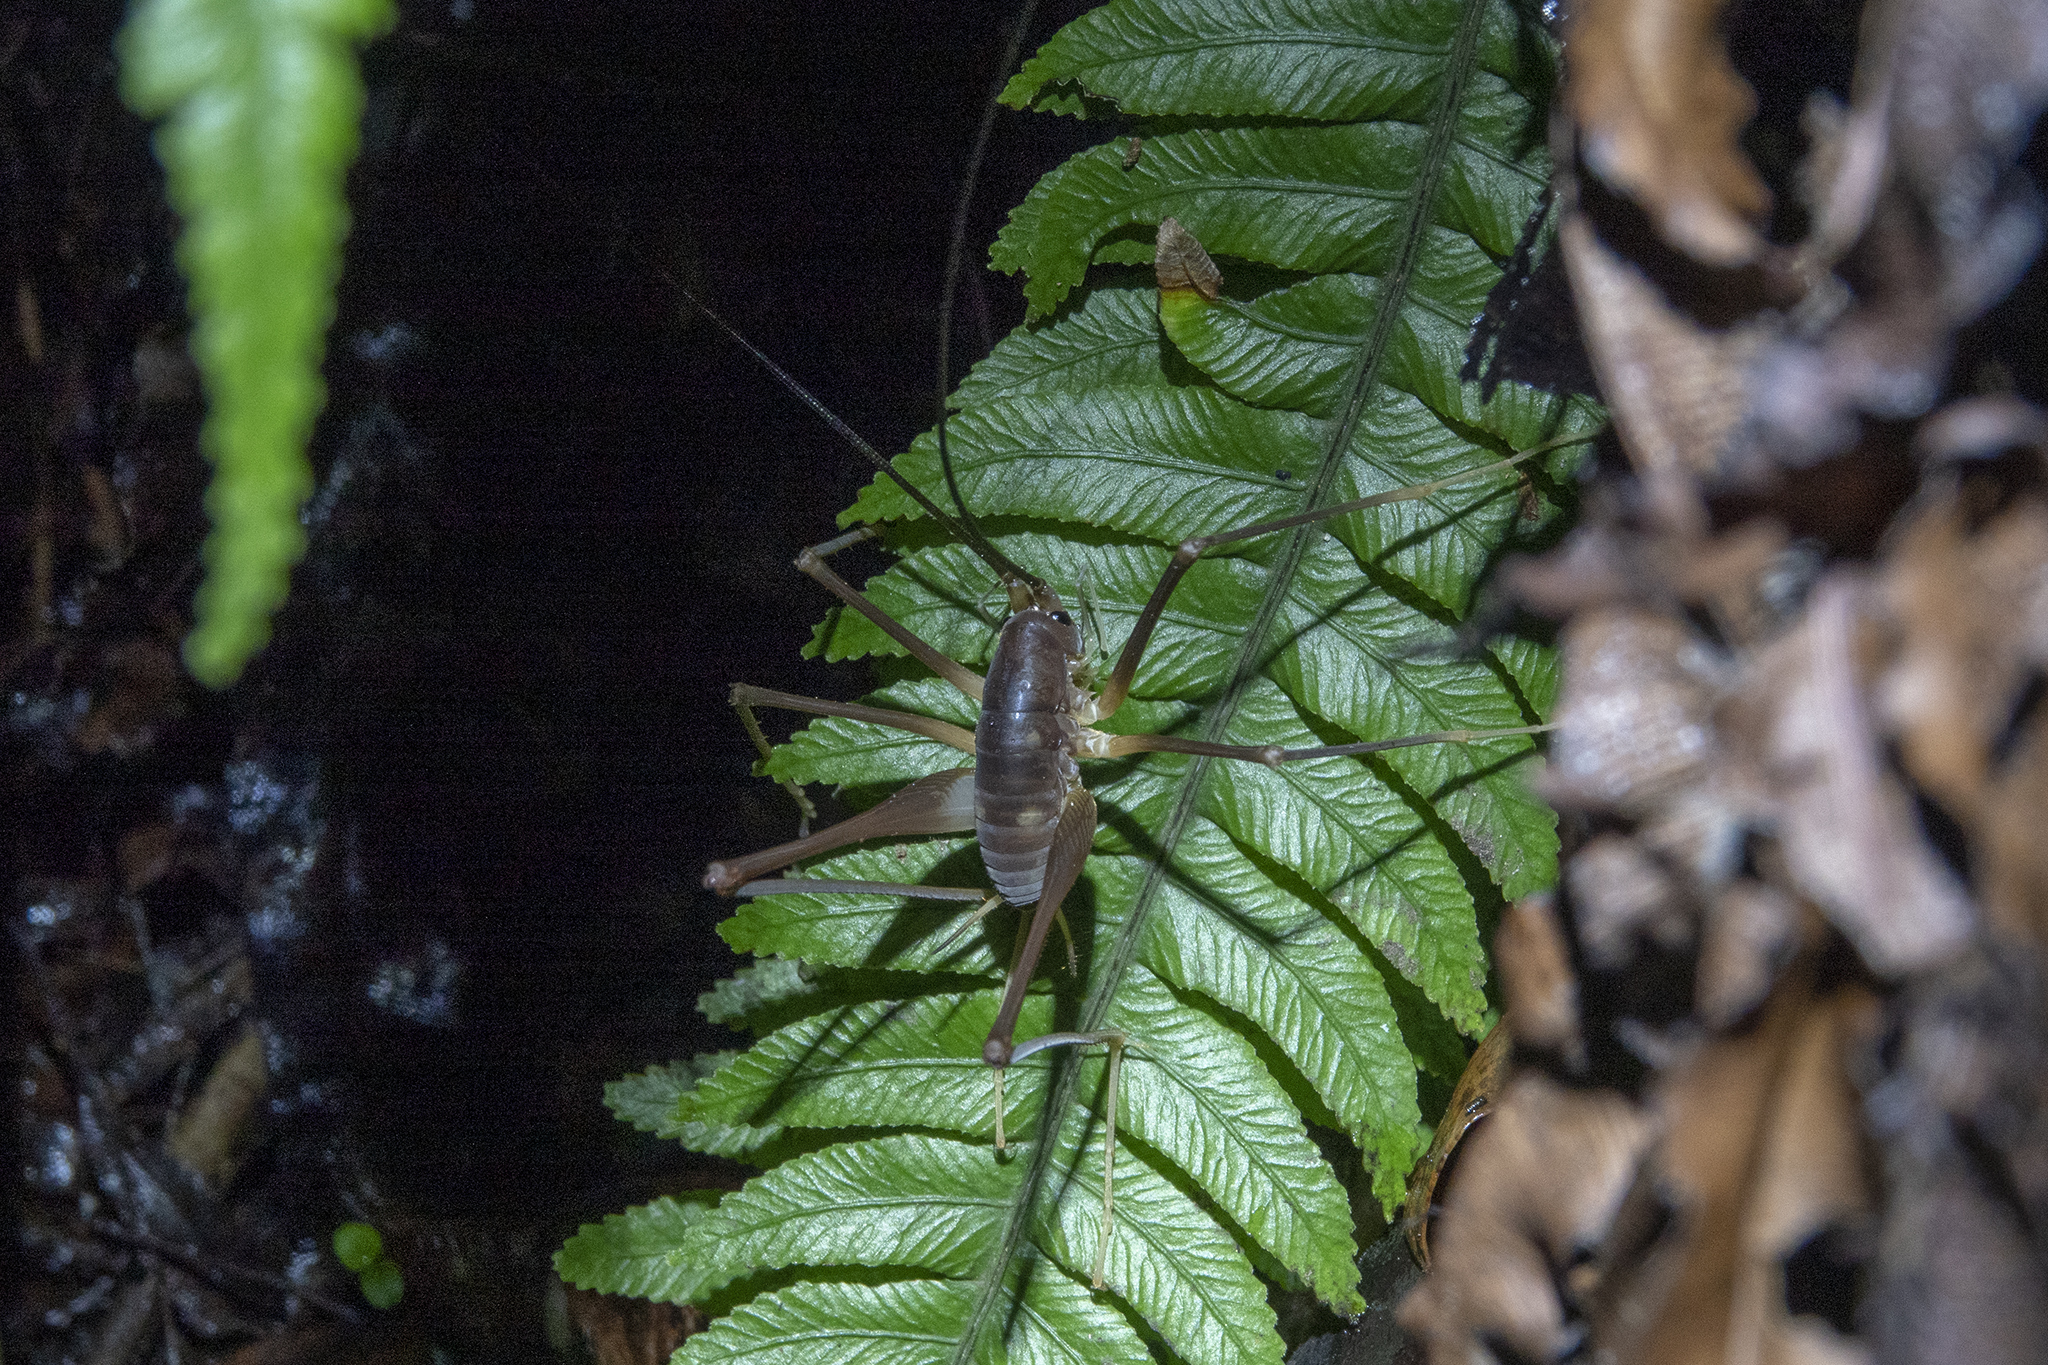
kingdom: Animalia
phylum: Arthropoda
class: Insecta
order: Orthoptera
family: Rhaphidophoridae
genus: Macropathus
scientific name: Macropathus filifer
